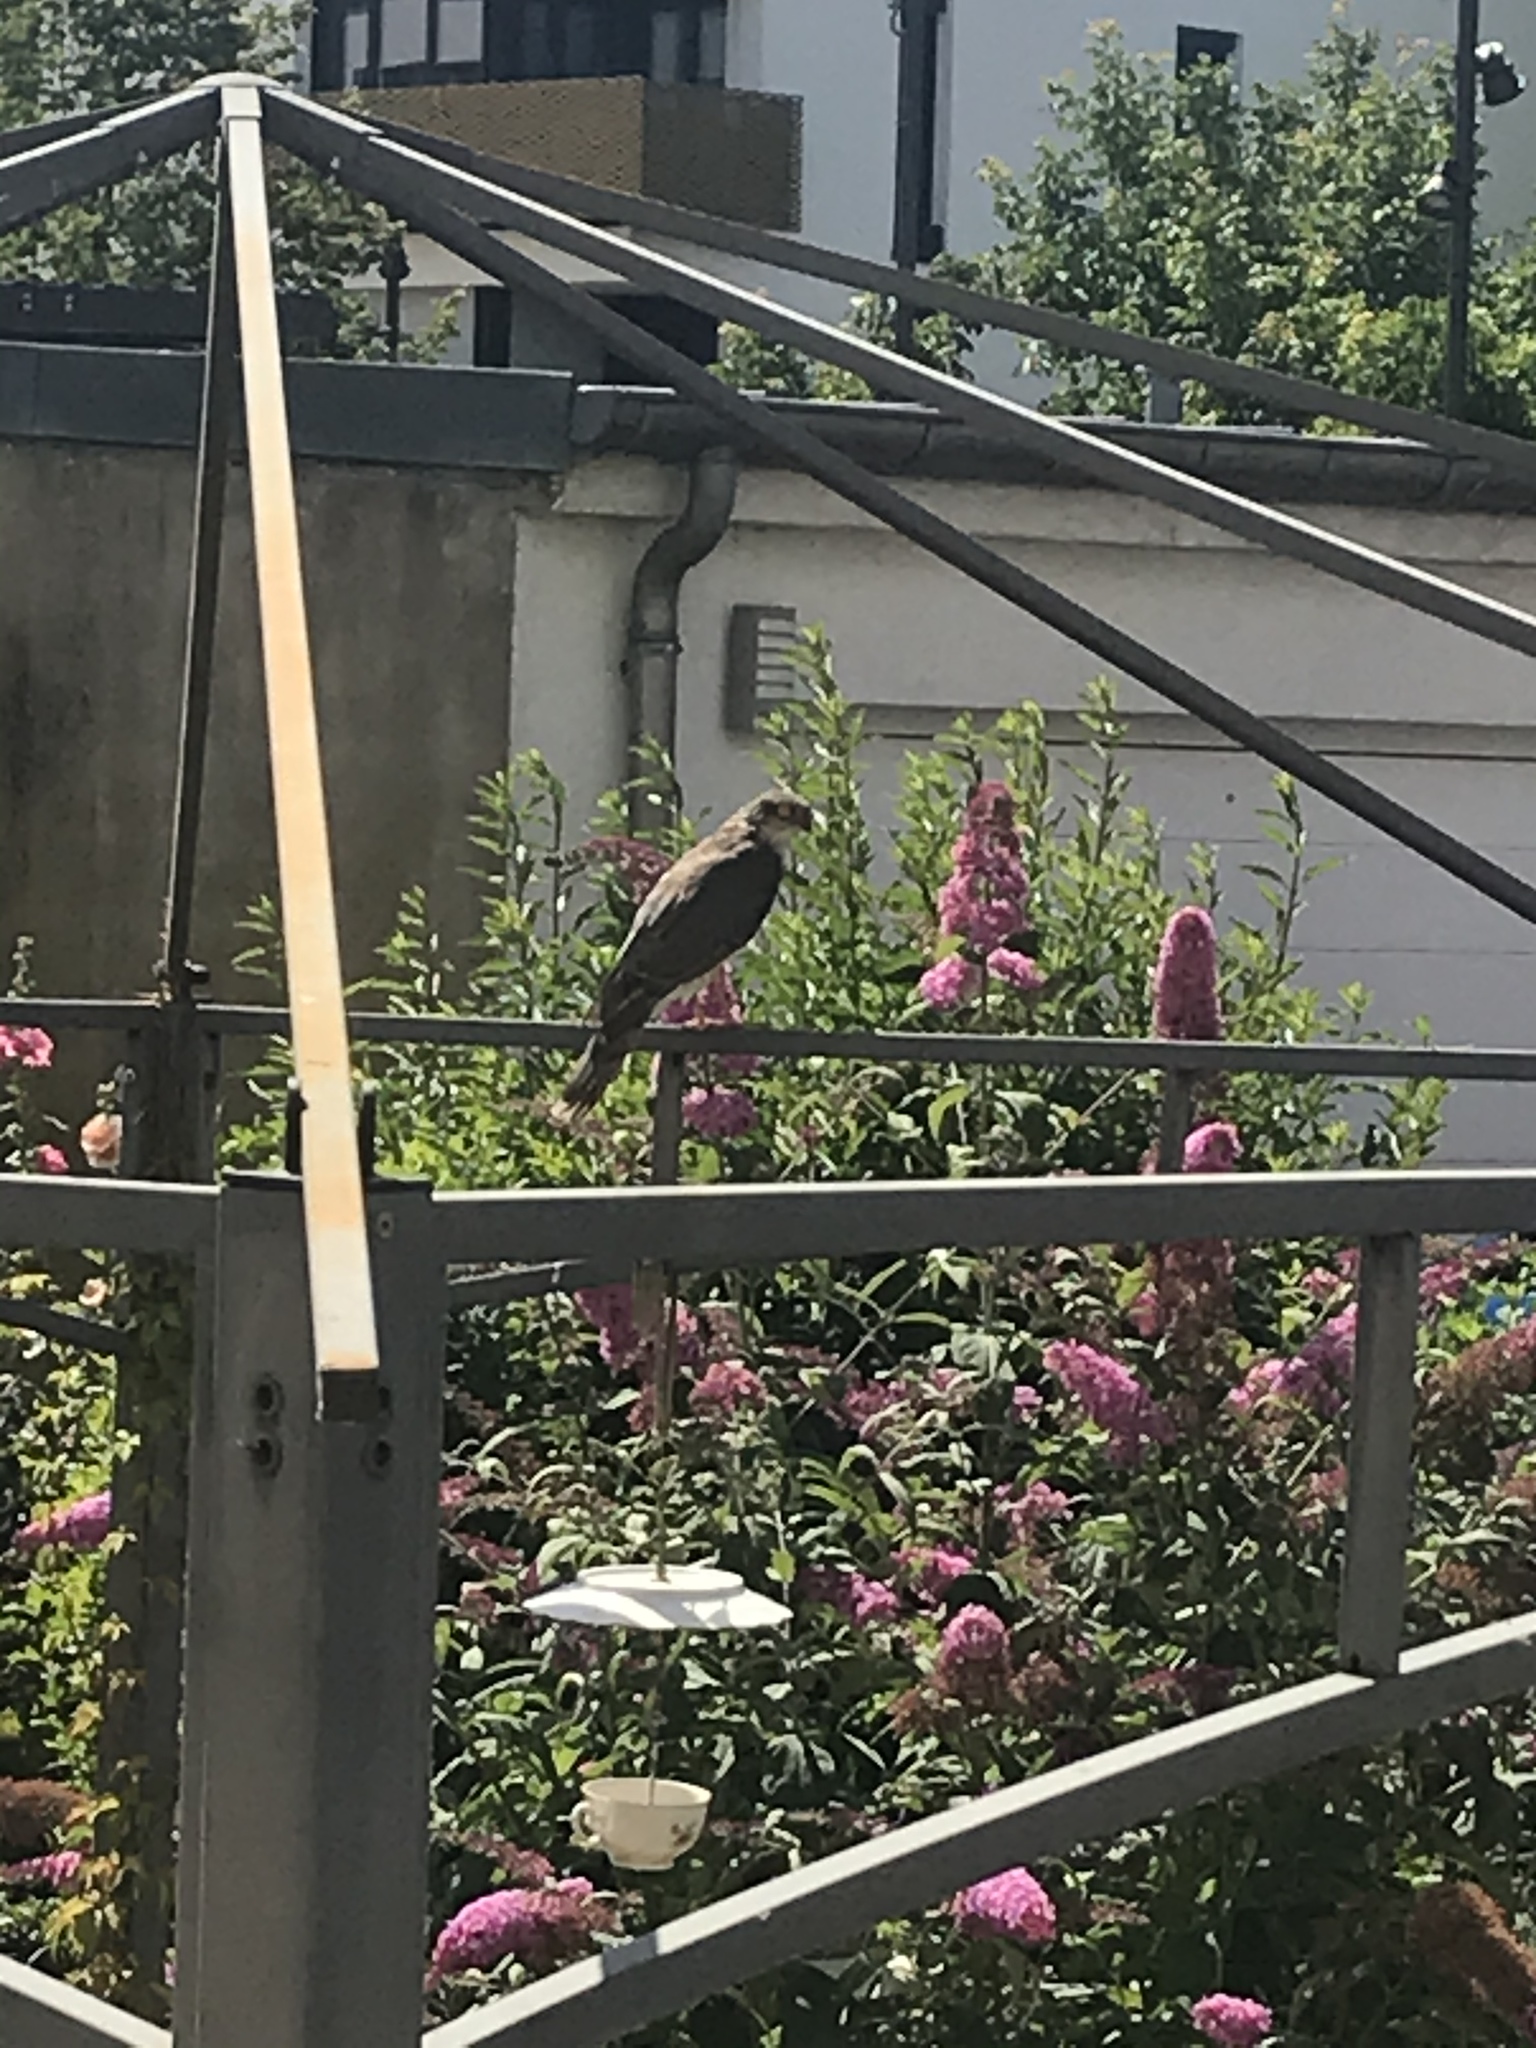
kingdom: Animalia
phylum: Chordata
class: Aves
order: Accipitriformes
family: Accipitridae
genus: Accipiter
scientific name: Accipiter nisus
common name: Eurasian sparrowhawk
